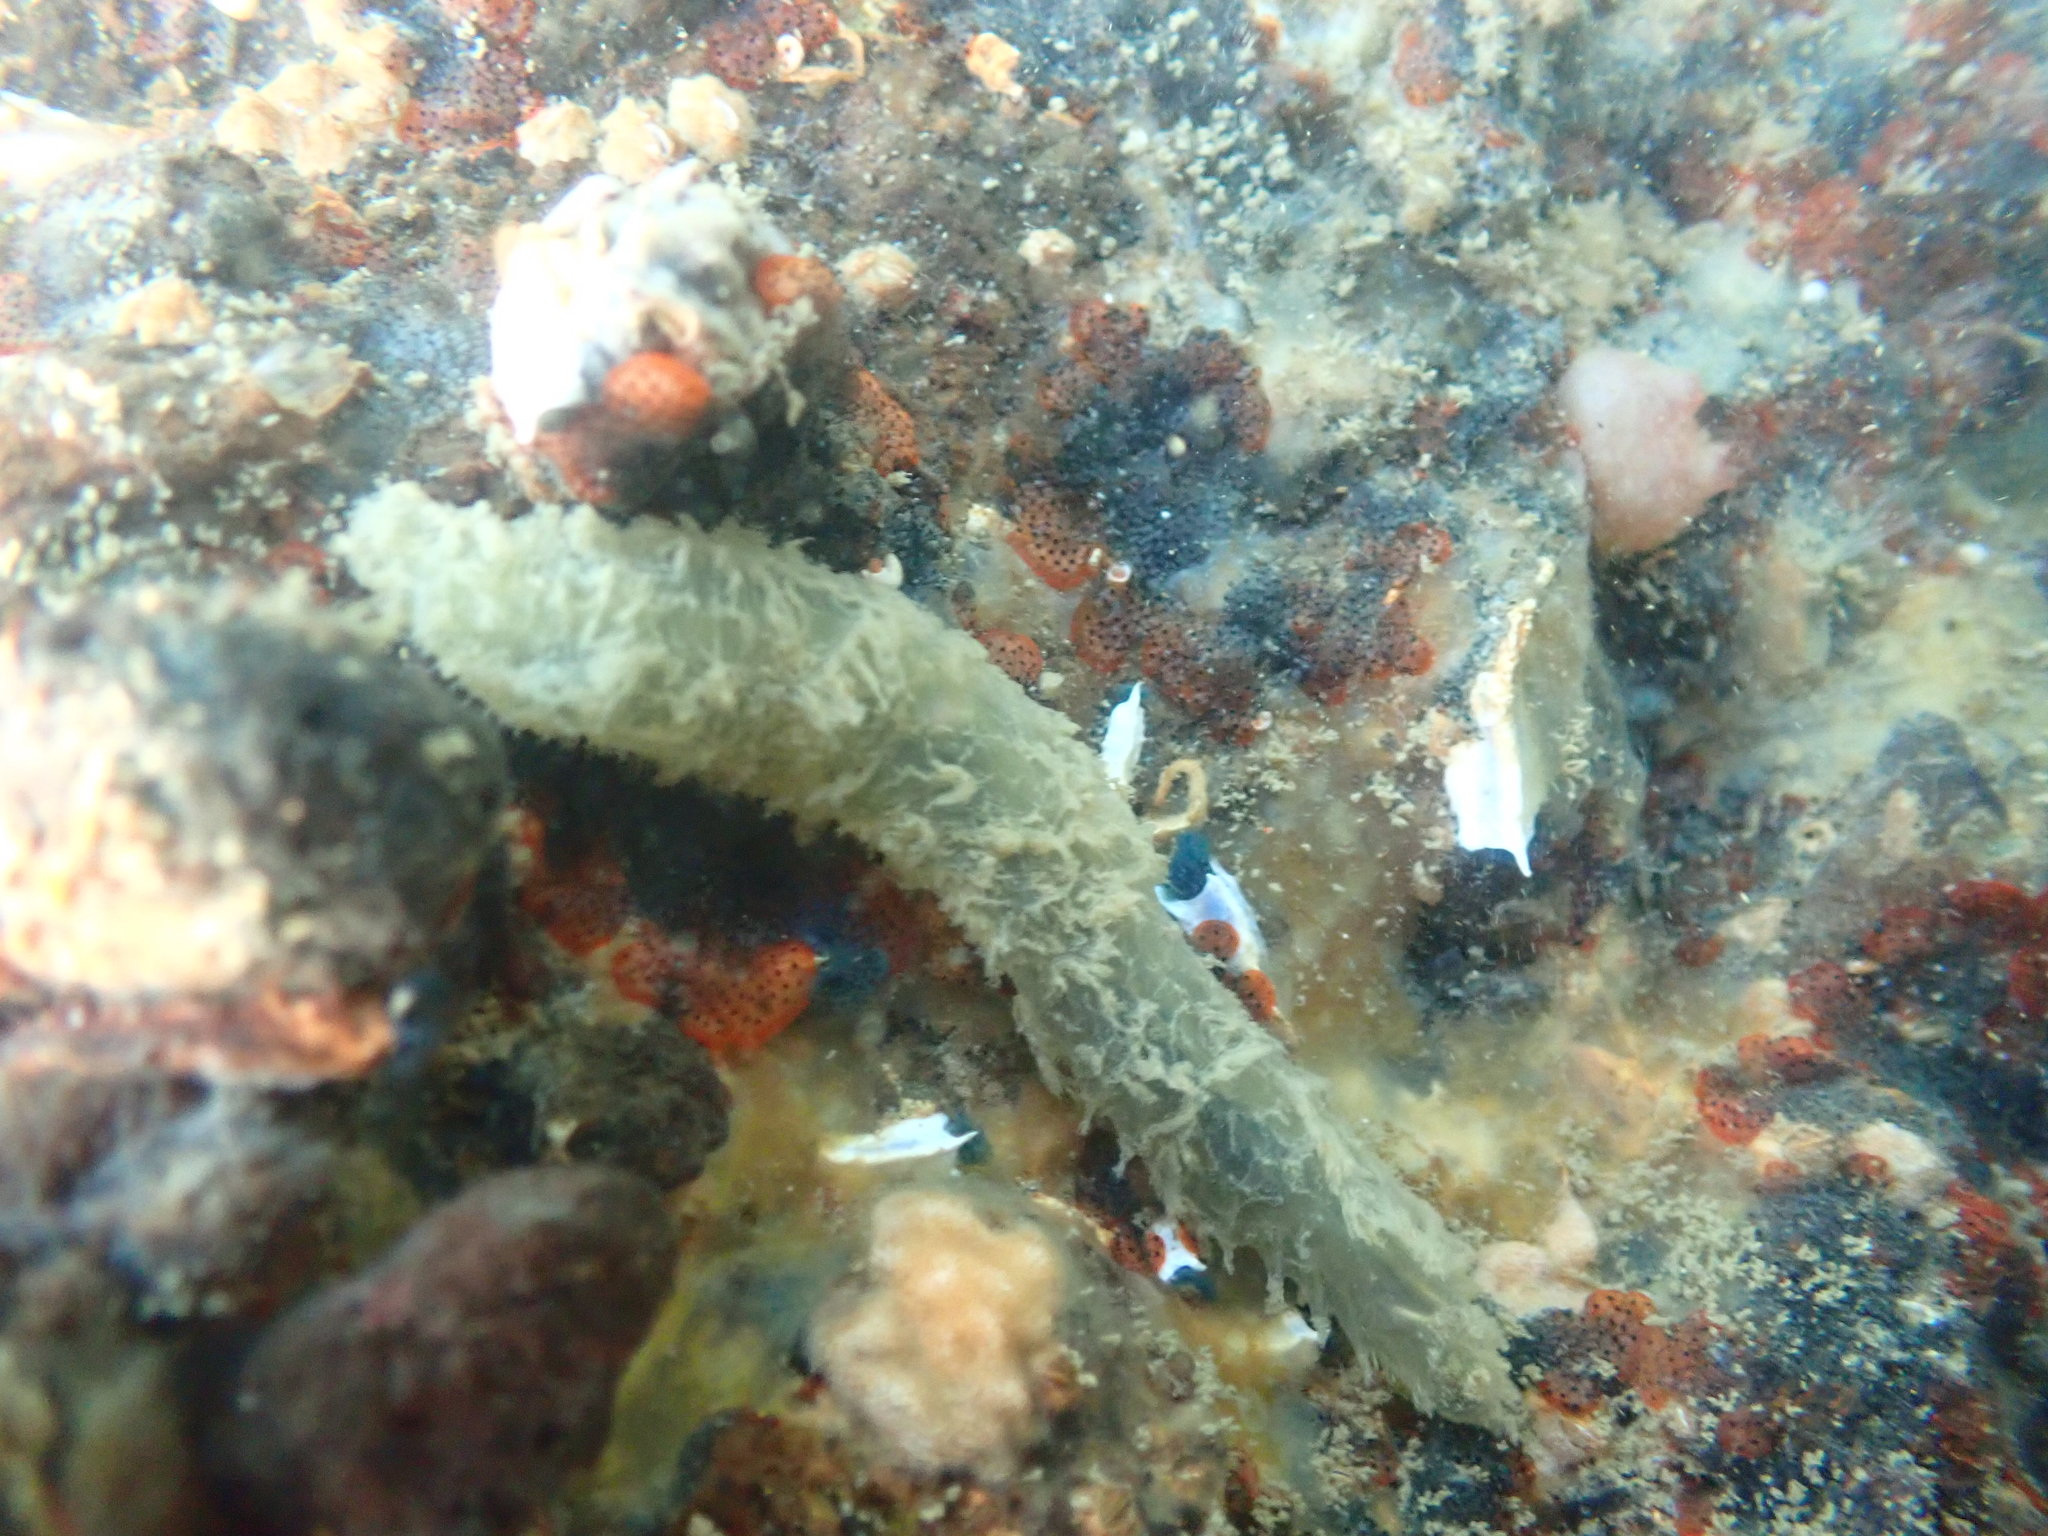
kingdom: Animalia
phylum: Annelida
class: Polychaeta
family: Flabelligeridae
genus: Flabelligera
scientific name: Flabelligera bicolor
